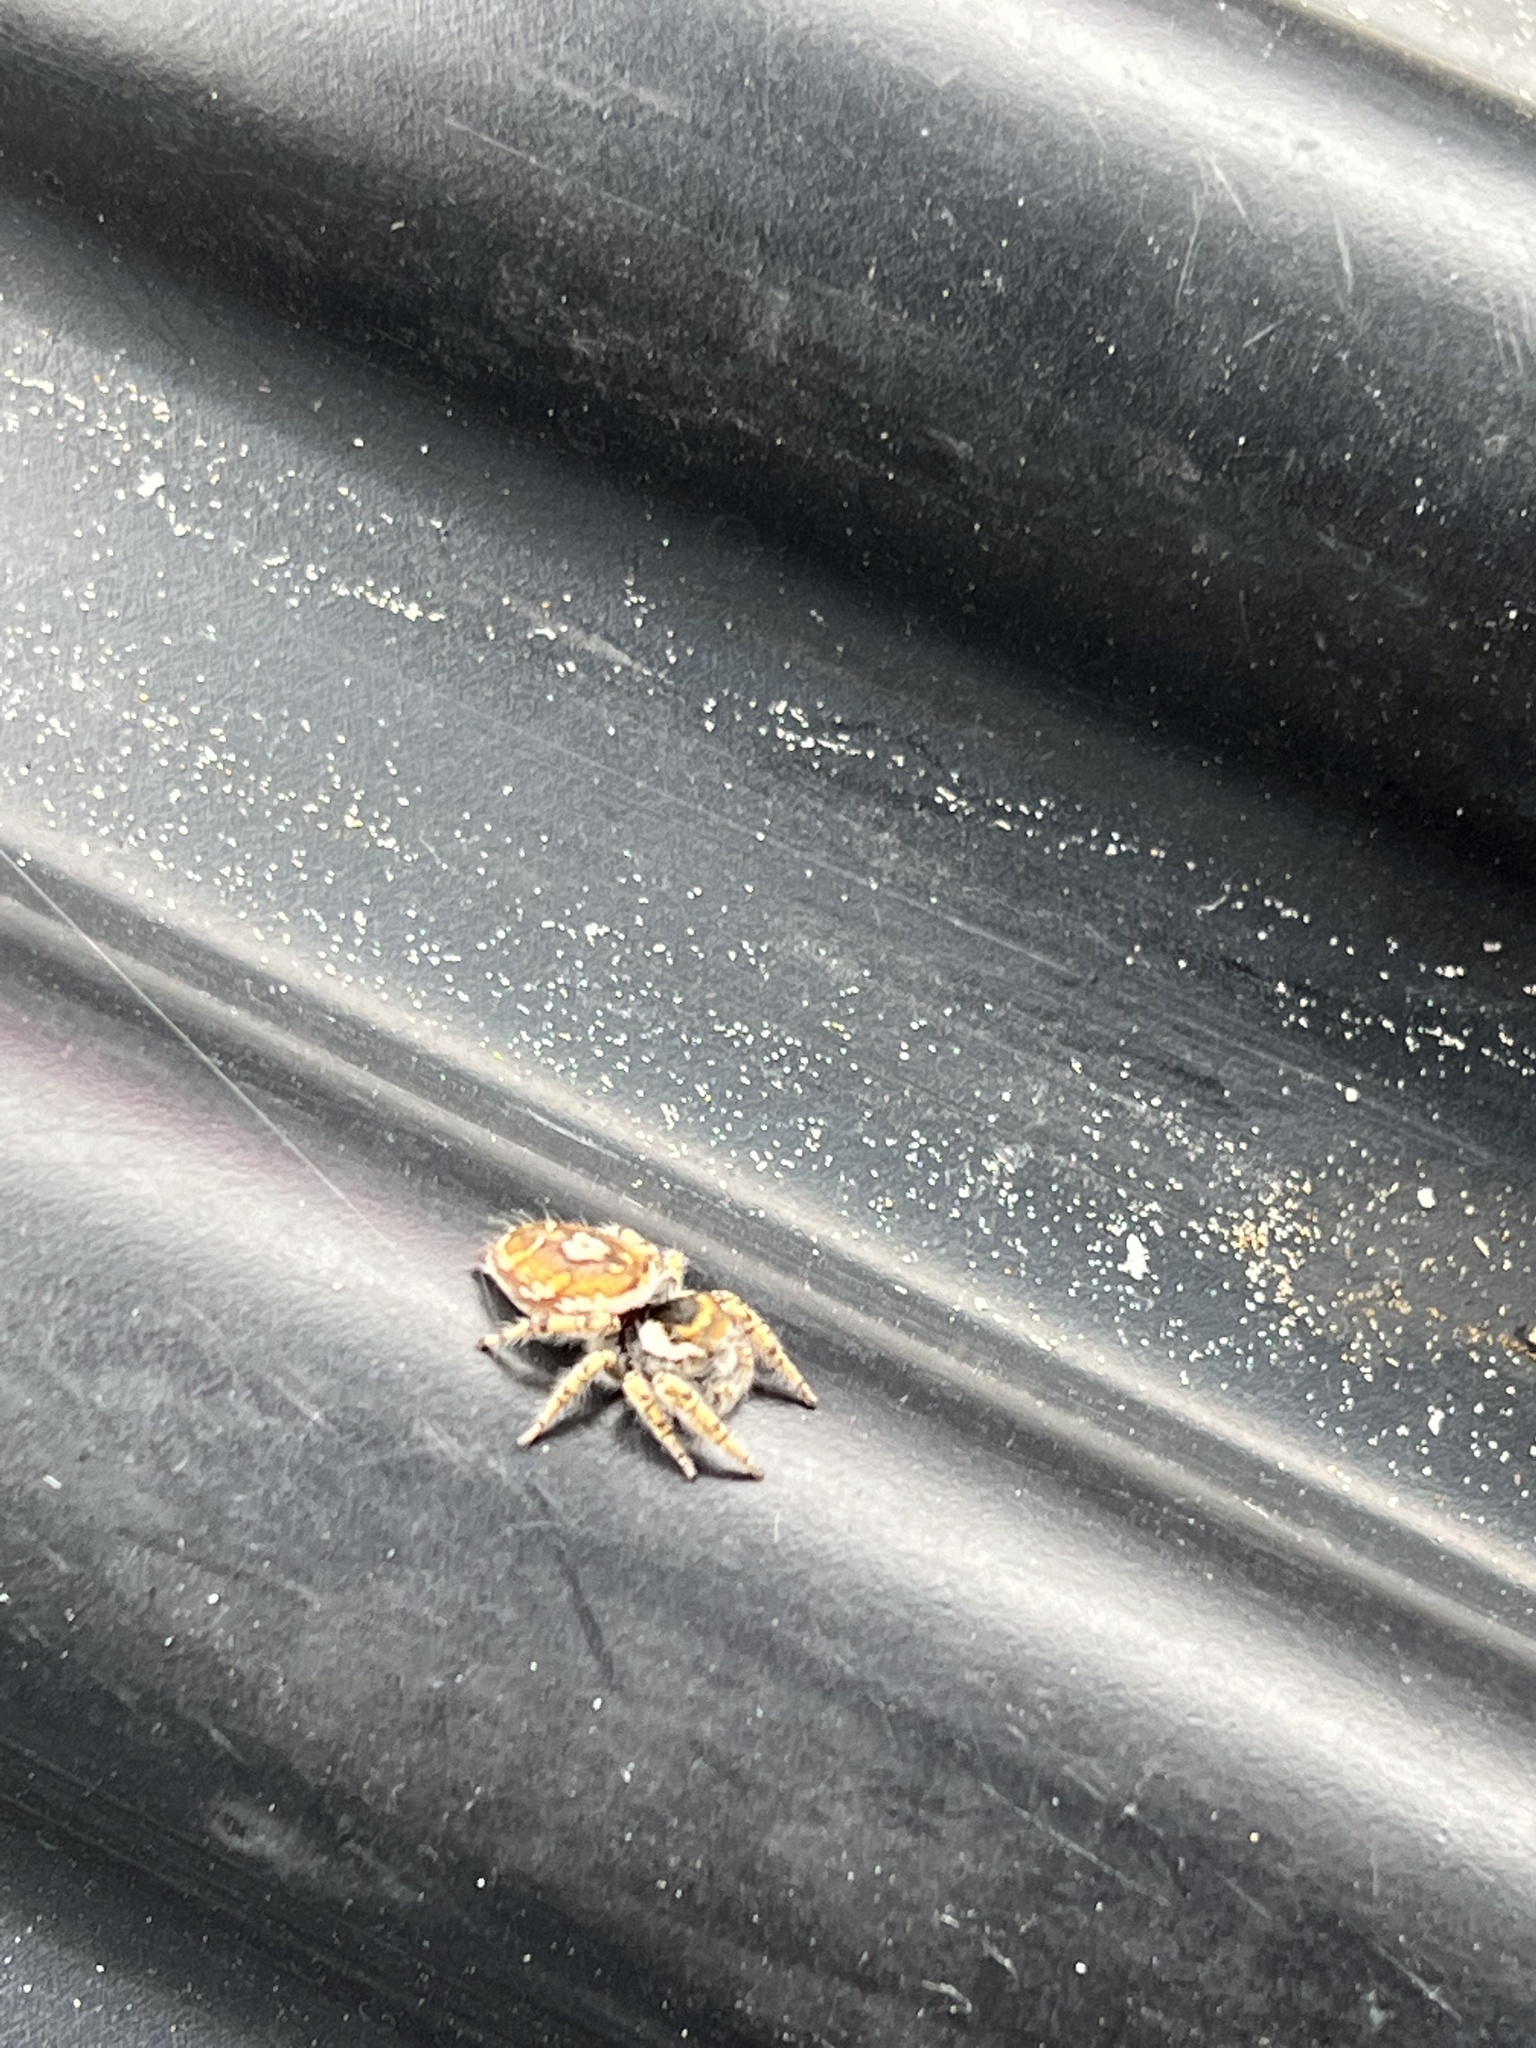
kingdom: Animalia
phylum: Arthropoda
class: Arachnida
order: Araneae
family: Salticidae
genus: Phidippus
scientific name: Phidippus arizonensis
